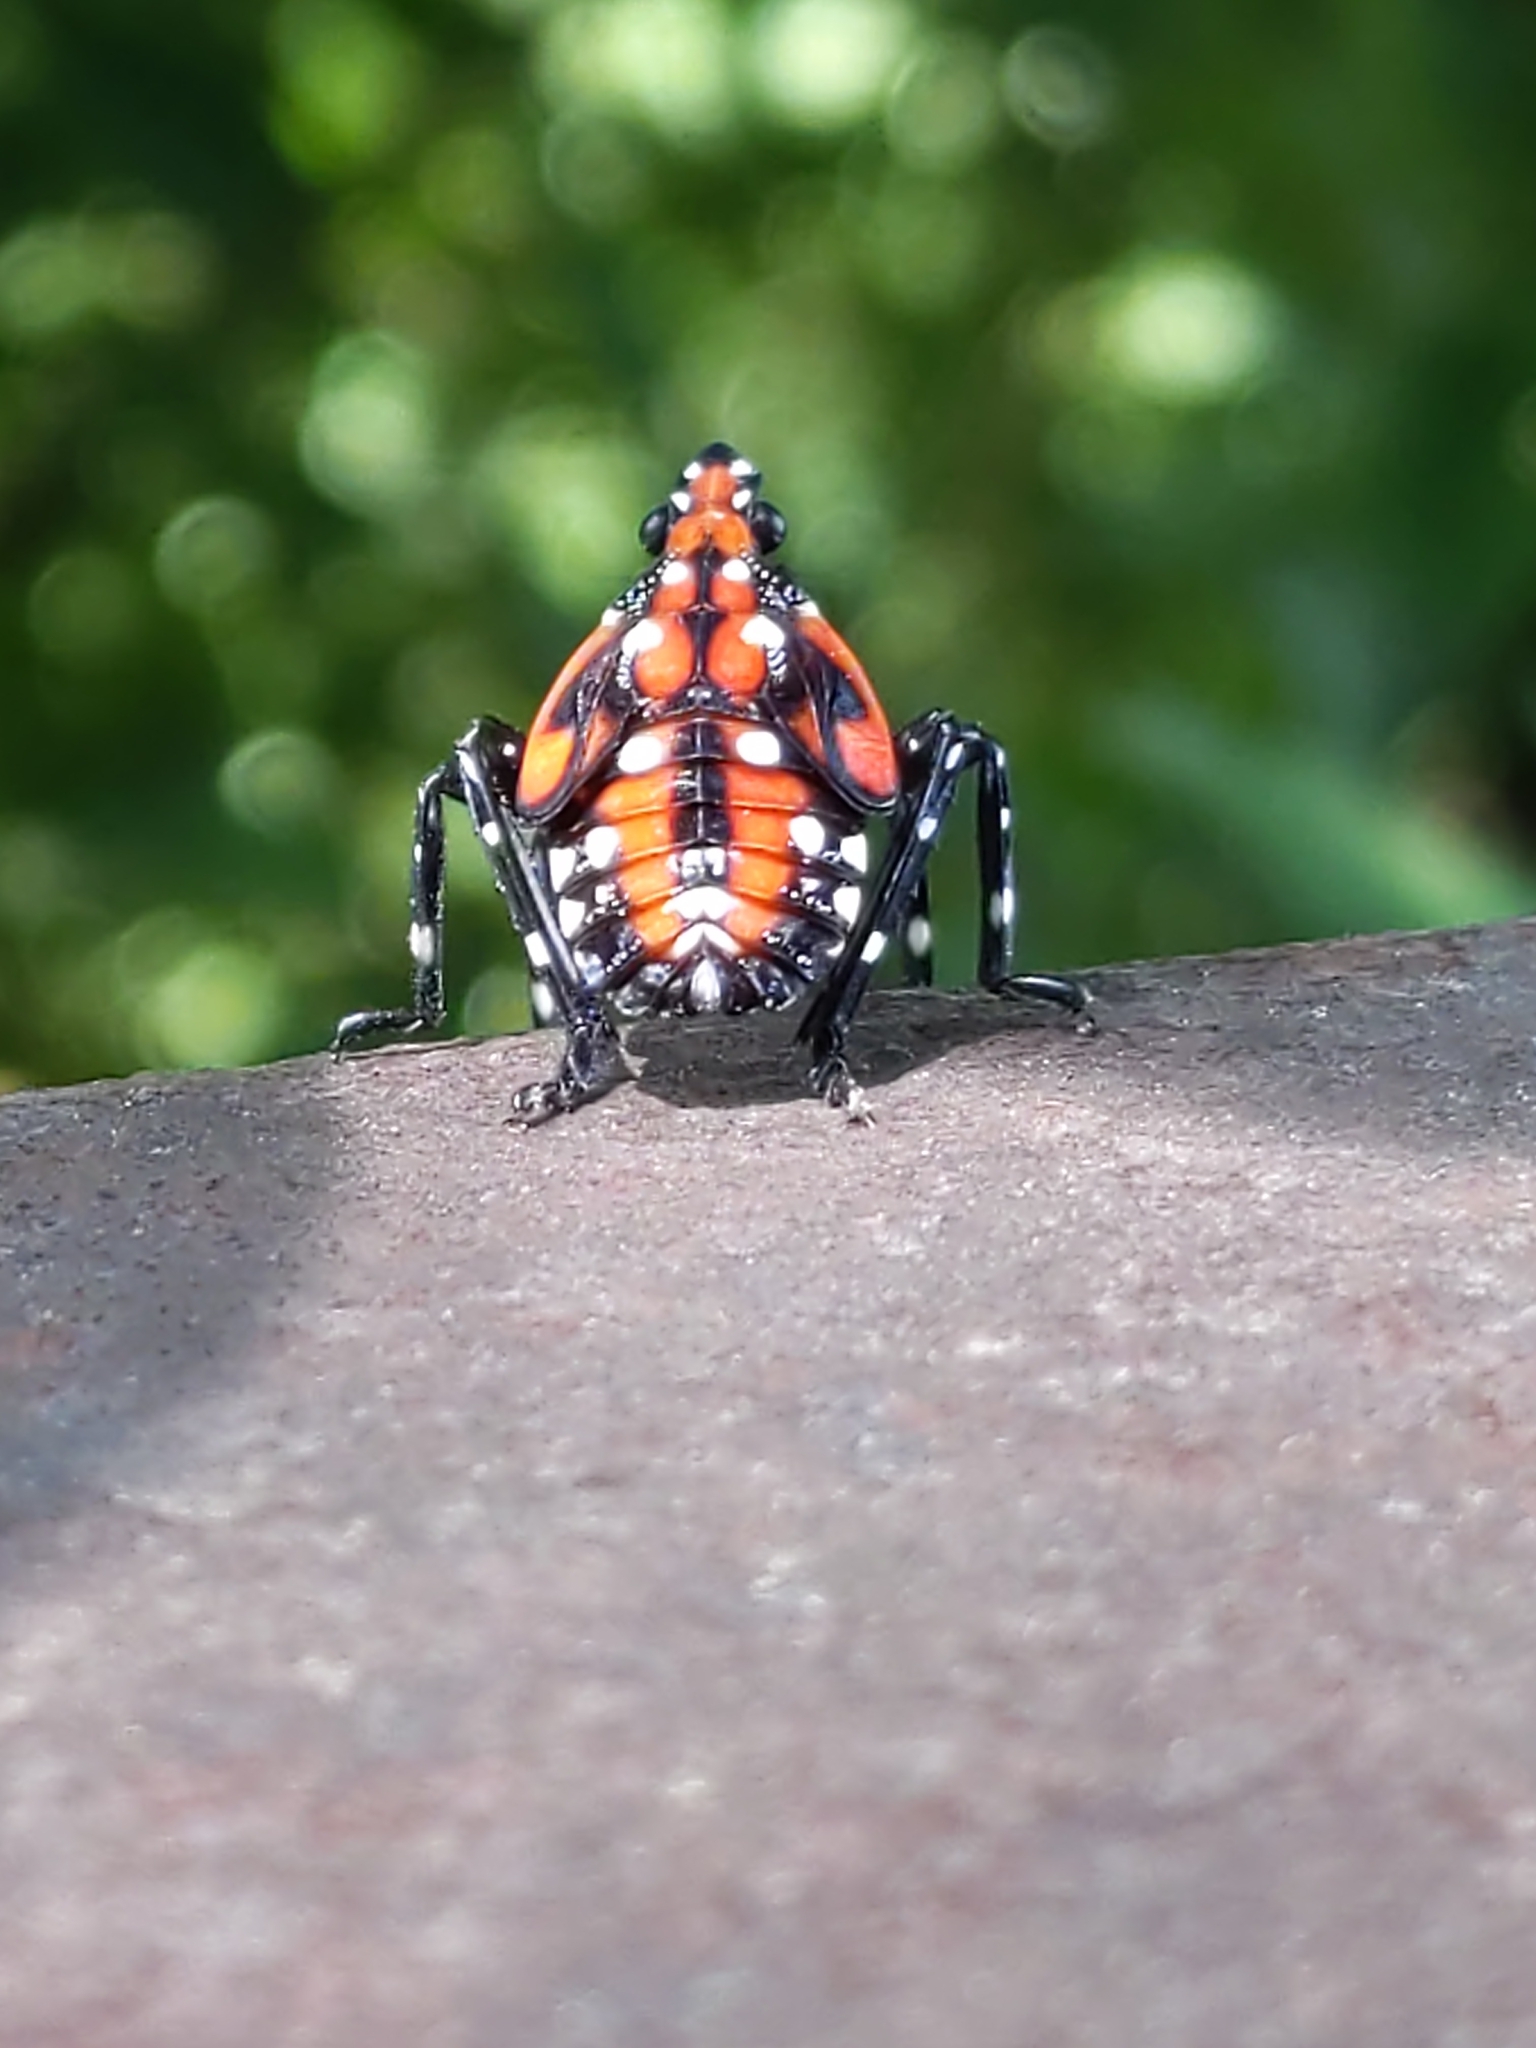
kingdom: Animalia
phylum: Arthropoda
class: Insecta
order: Hemiptera
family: Fulgoridae
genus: Lycorma
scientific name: Lycorma delicatula
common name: Spotted lanternfly
